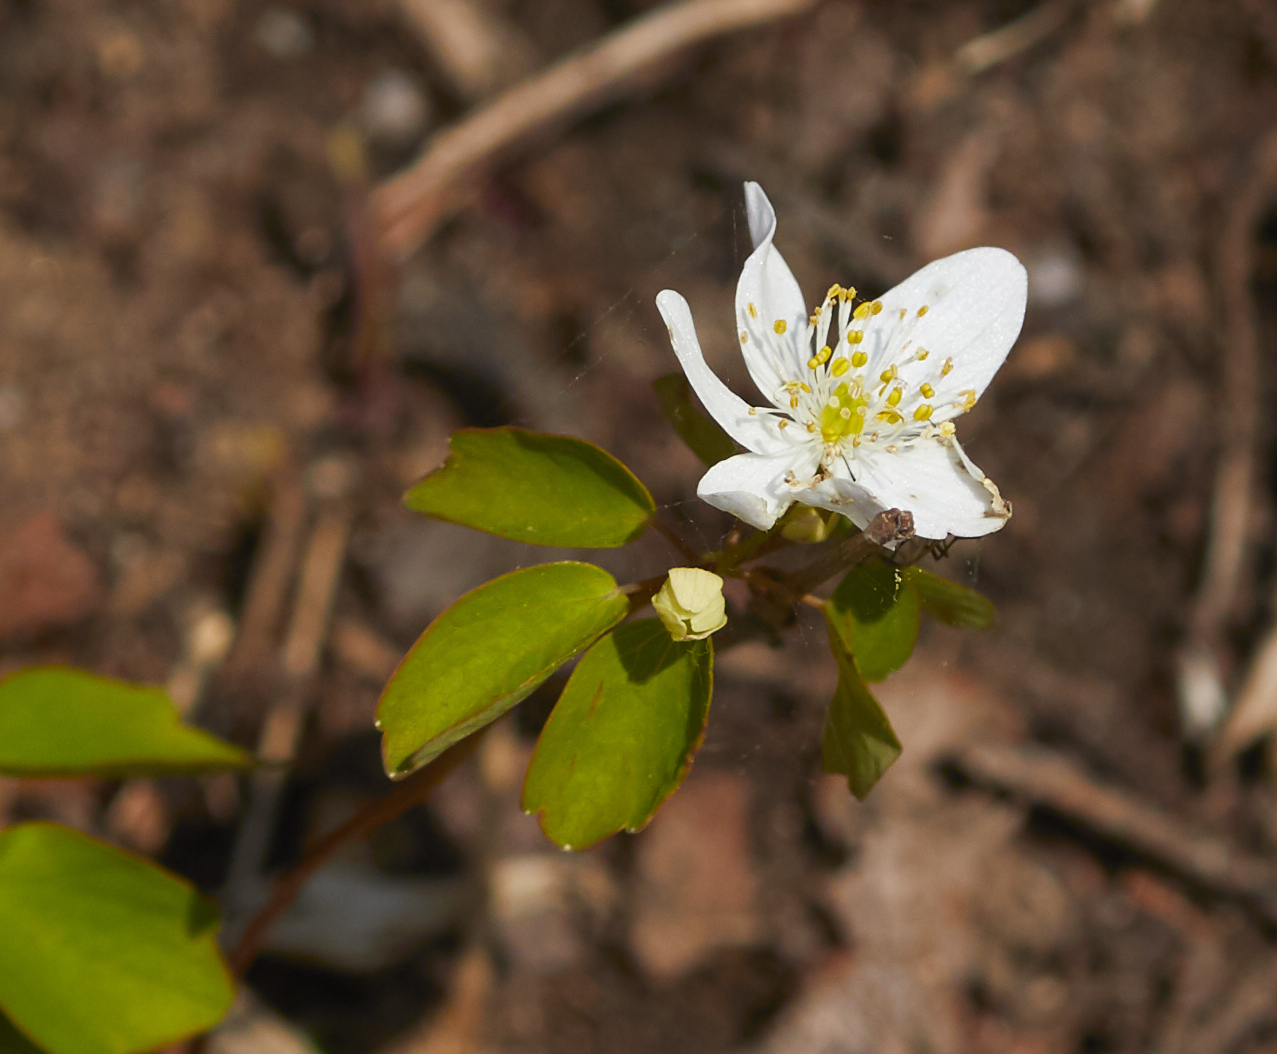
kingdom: Plantae
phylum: Tracheophyta
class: Magnoliopsida
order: Ranunculales
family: Ranunculaceae
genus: Thalictrum
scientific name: Thalictrum thalictroides
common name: Rue-anemone
